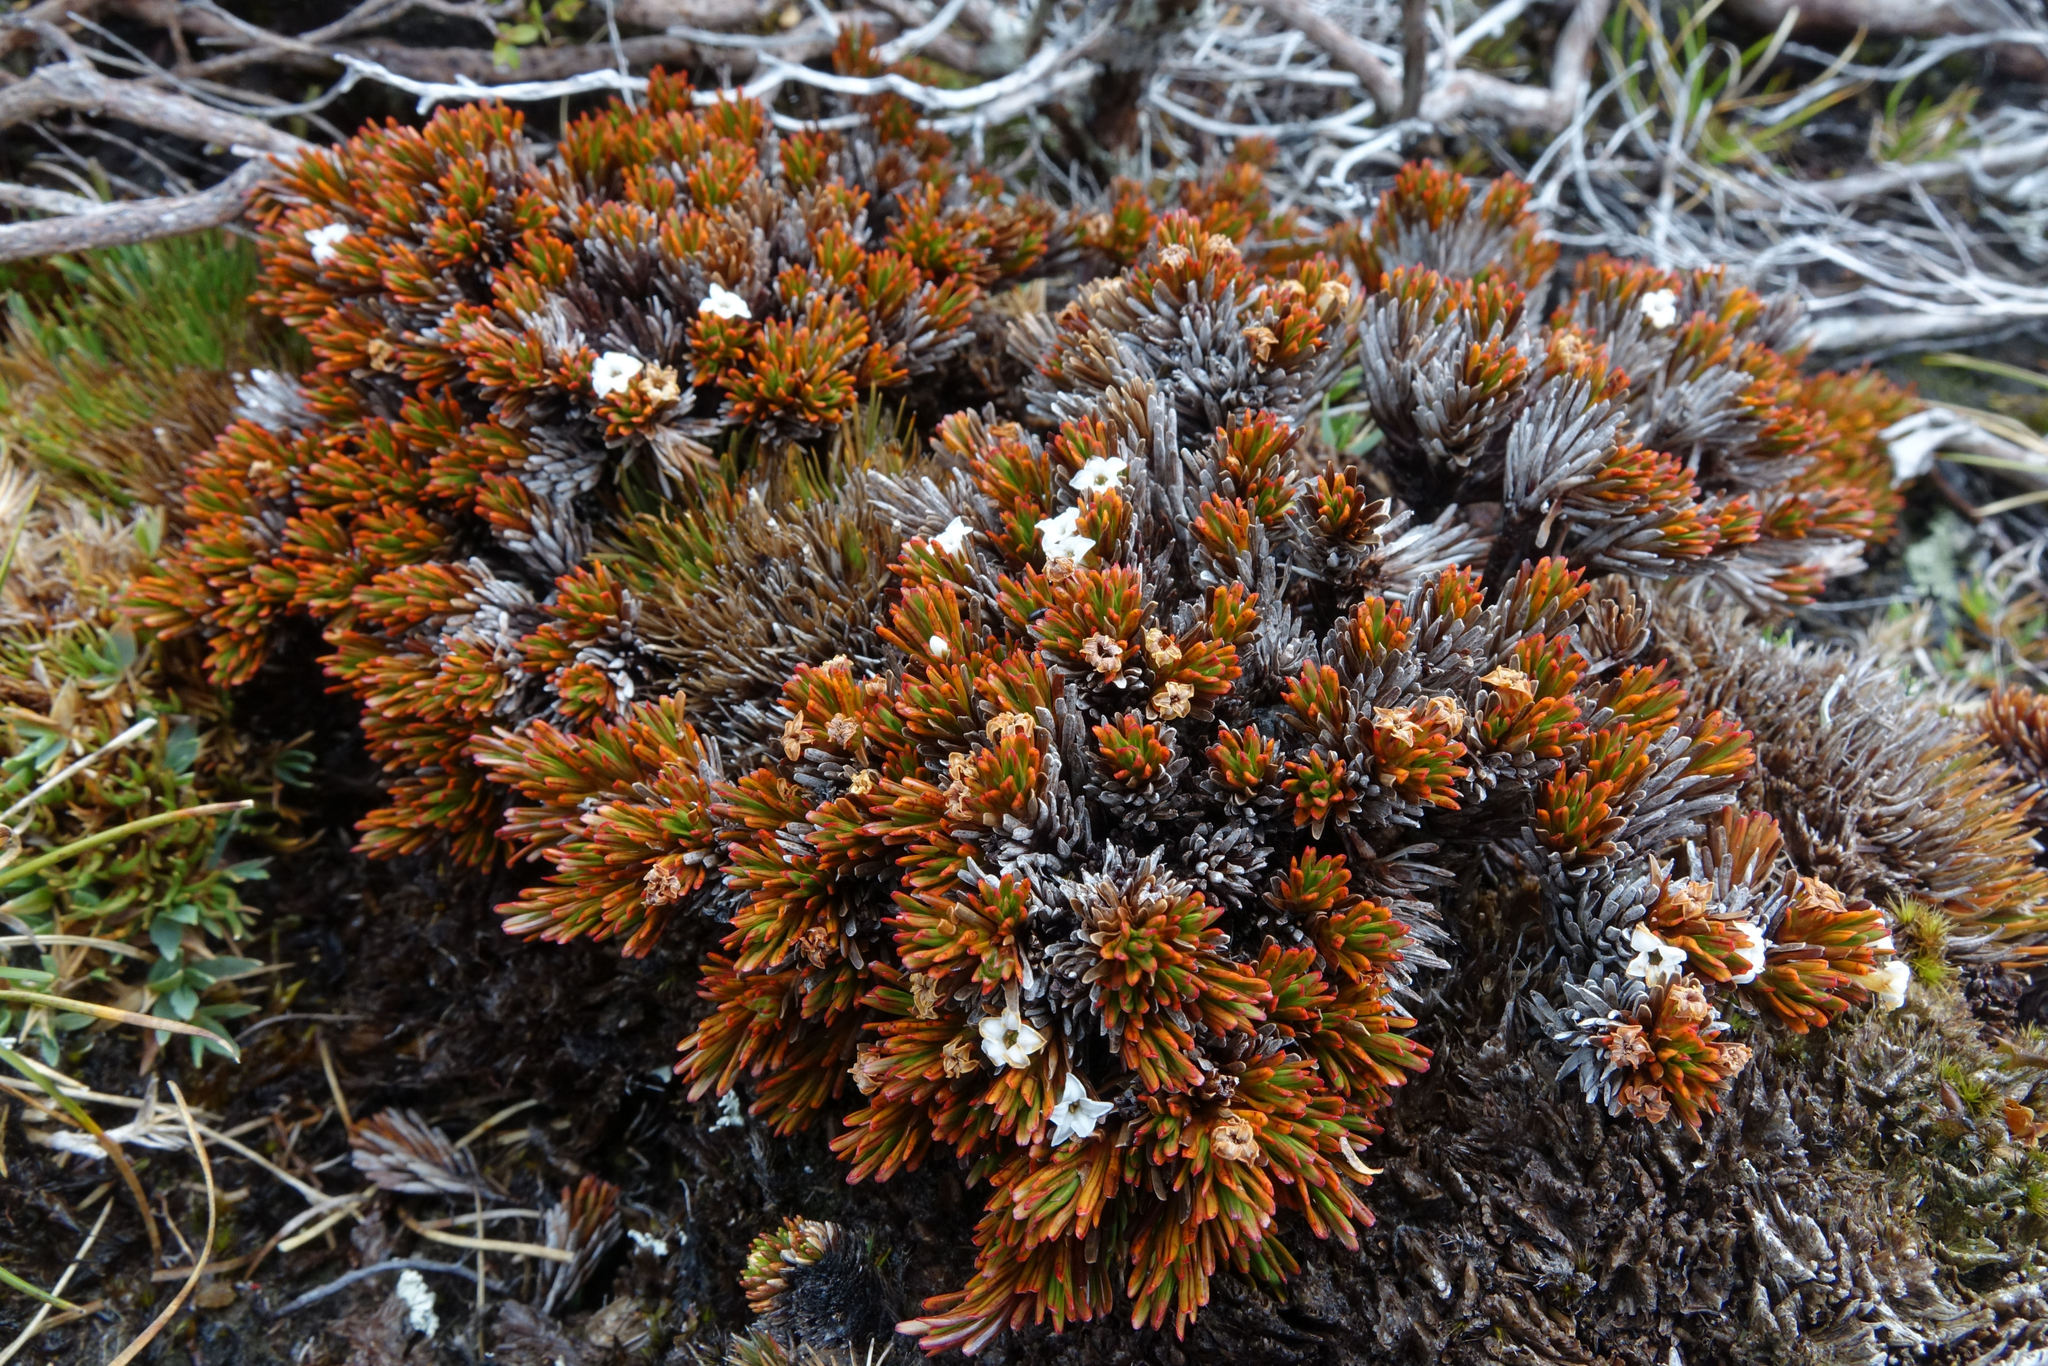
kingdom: Plantae
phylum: Tracheophyta
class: Magnoliopsida
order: Ericales
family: Ericaceae
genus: Dracophyllum
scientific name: Dracophyllum politum
